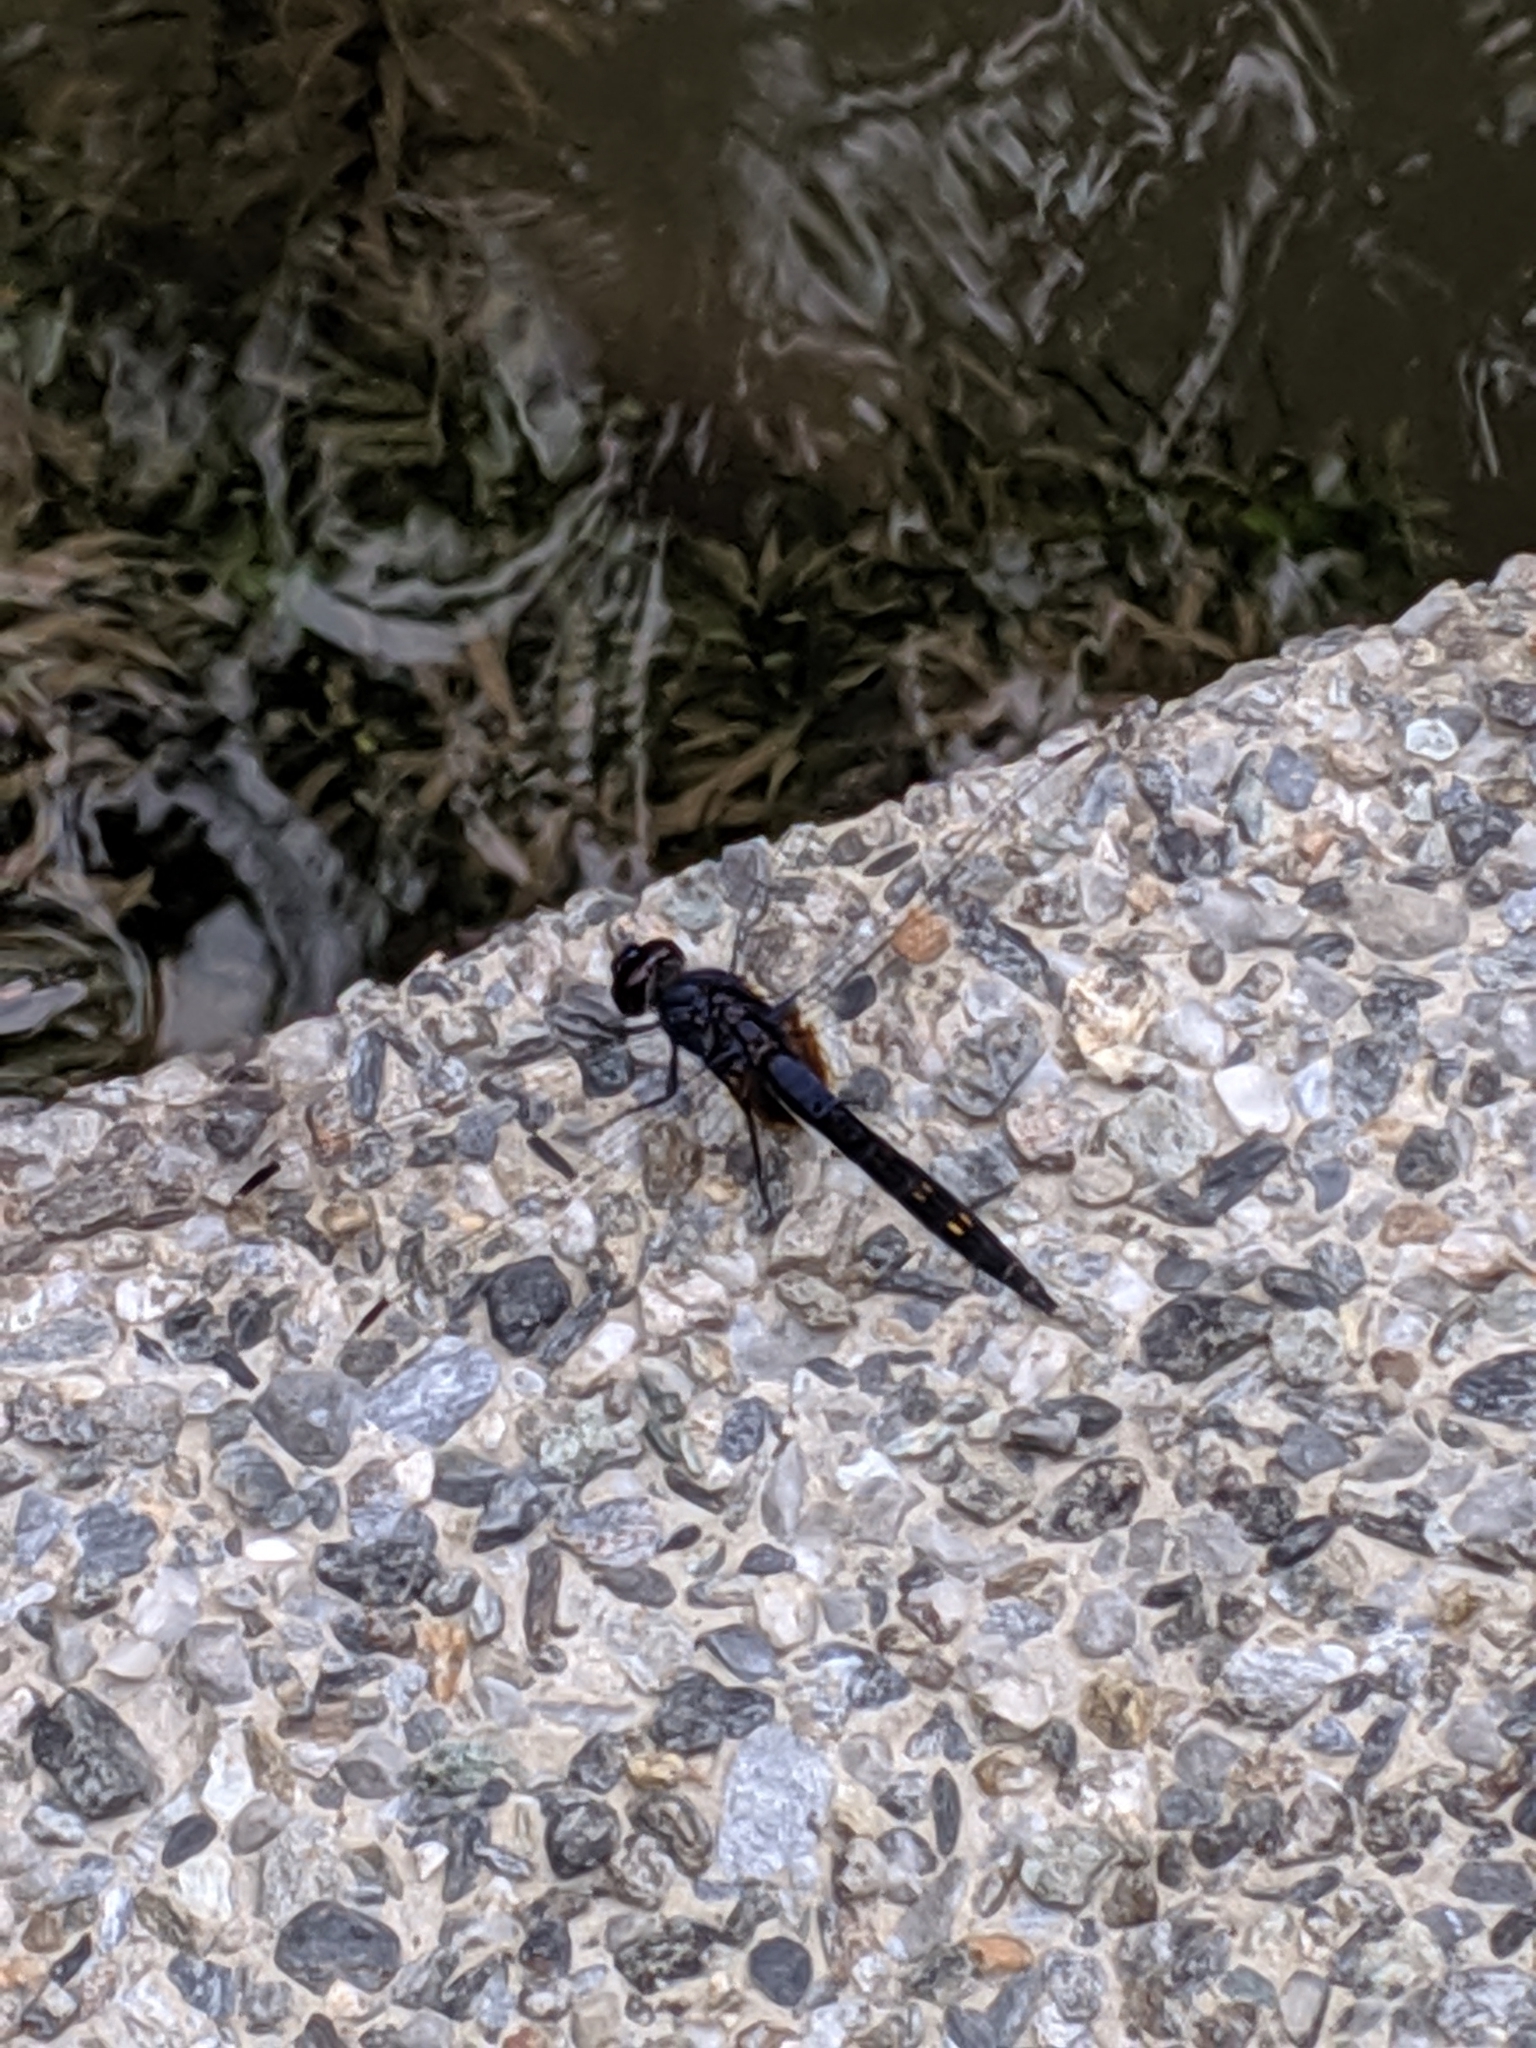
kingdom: Animalia
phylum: Arthropoda
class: Insecta
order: Odonata
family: Libellulidae
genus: Trithemis
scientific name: Trithemis festiva
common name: Indigo dropwing
